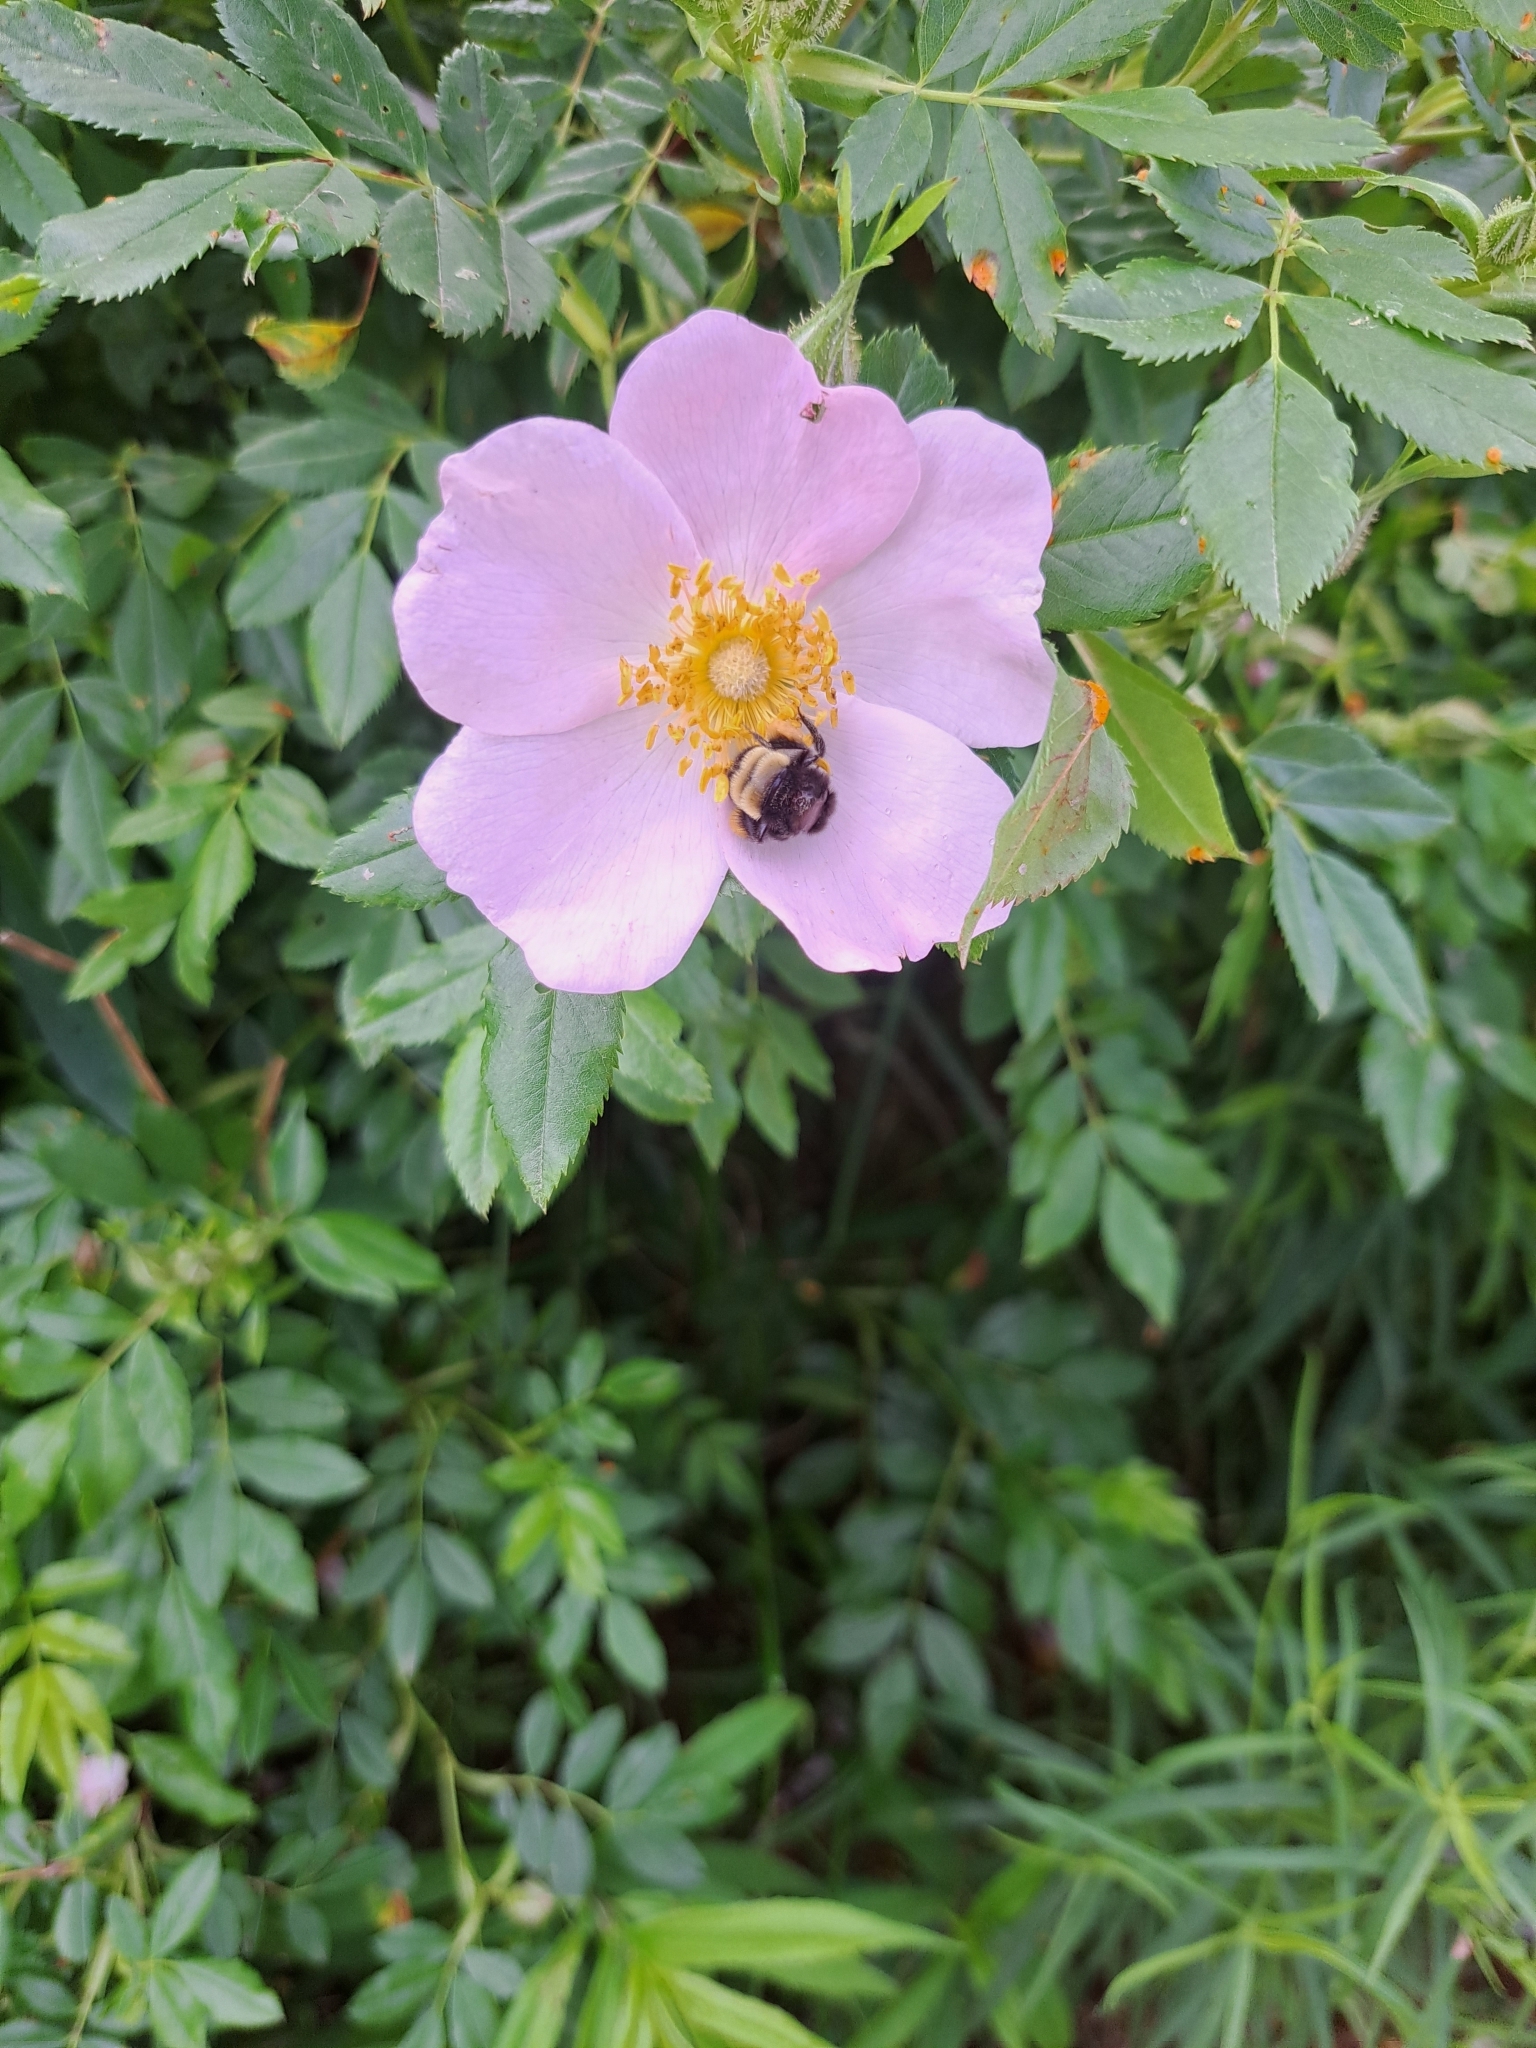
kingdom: Animalia
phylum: Arthropoda
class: Insecta
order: Hymenoptera
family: Apidae
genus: Bombus
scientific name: Bombus terricola
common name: Yellow-banded bumble bee
